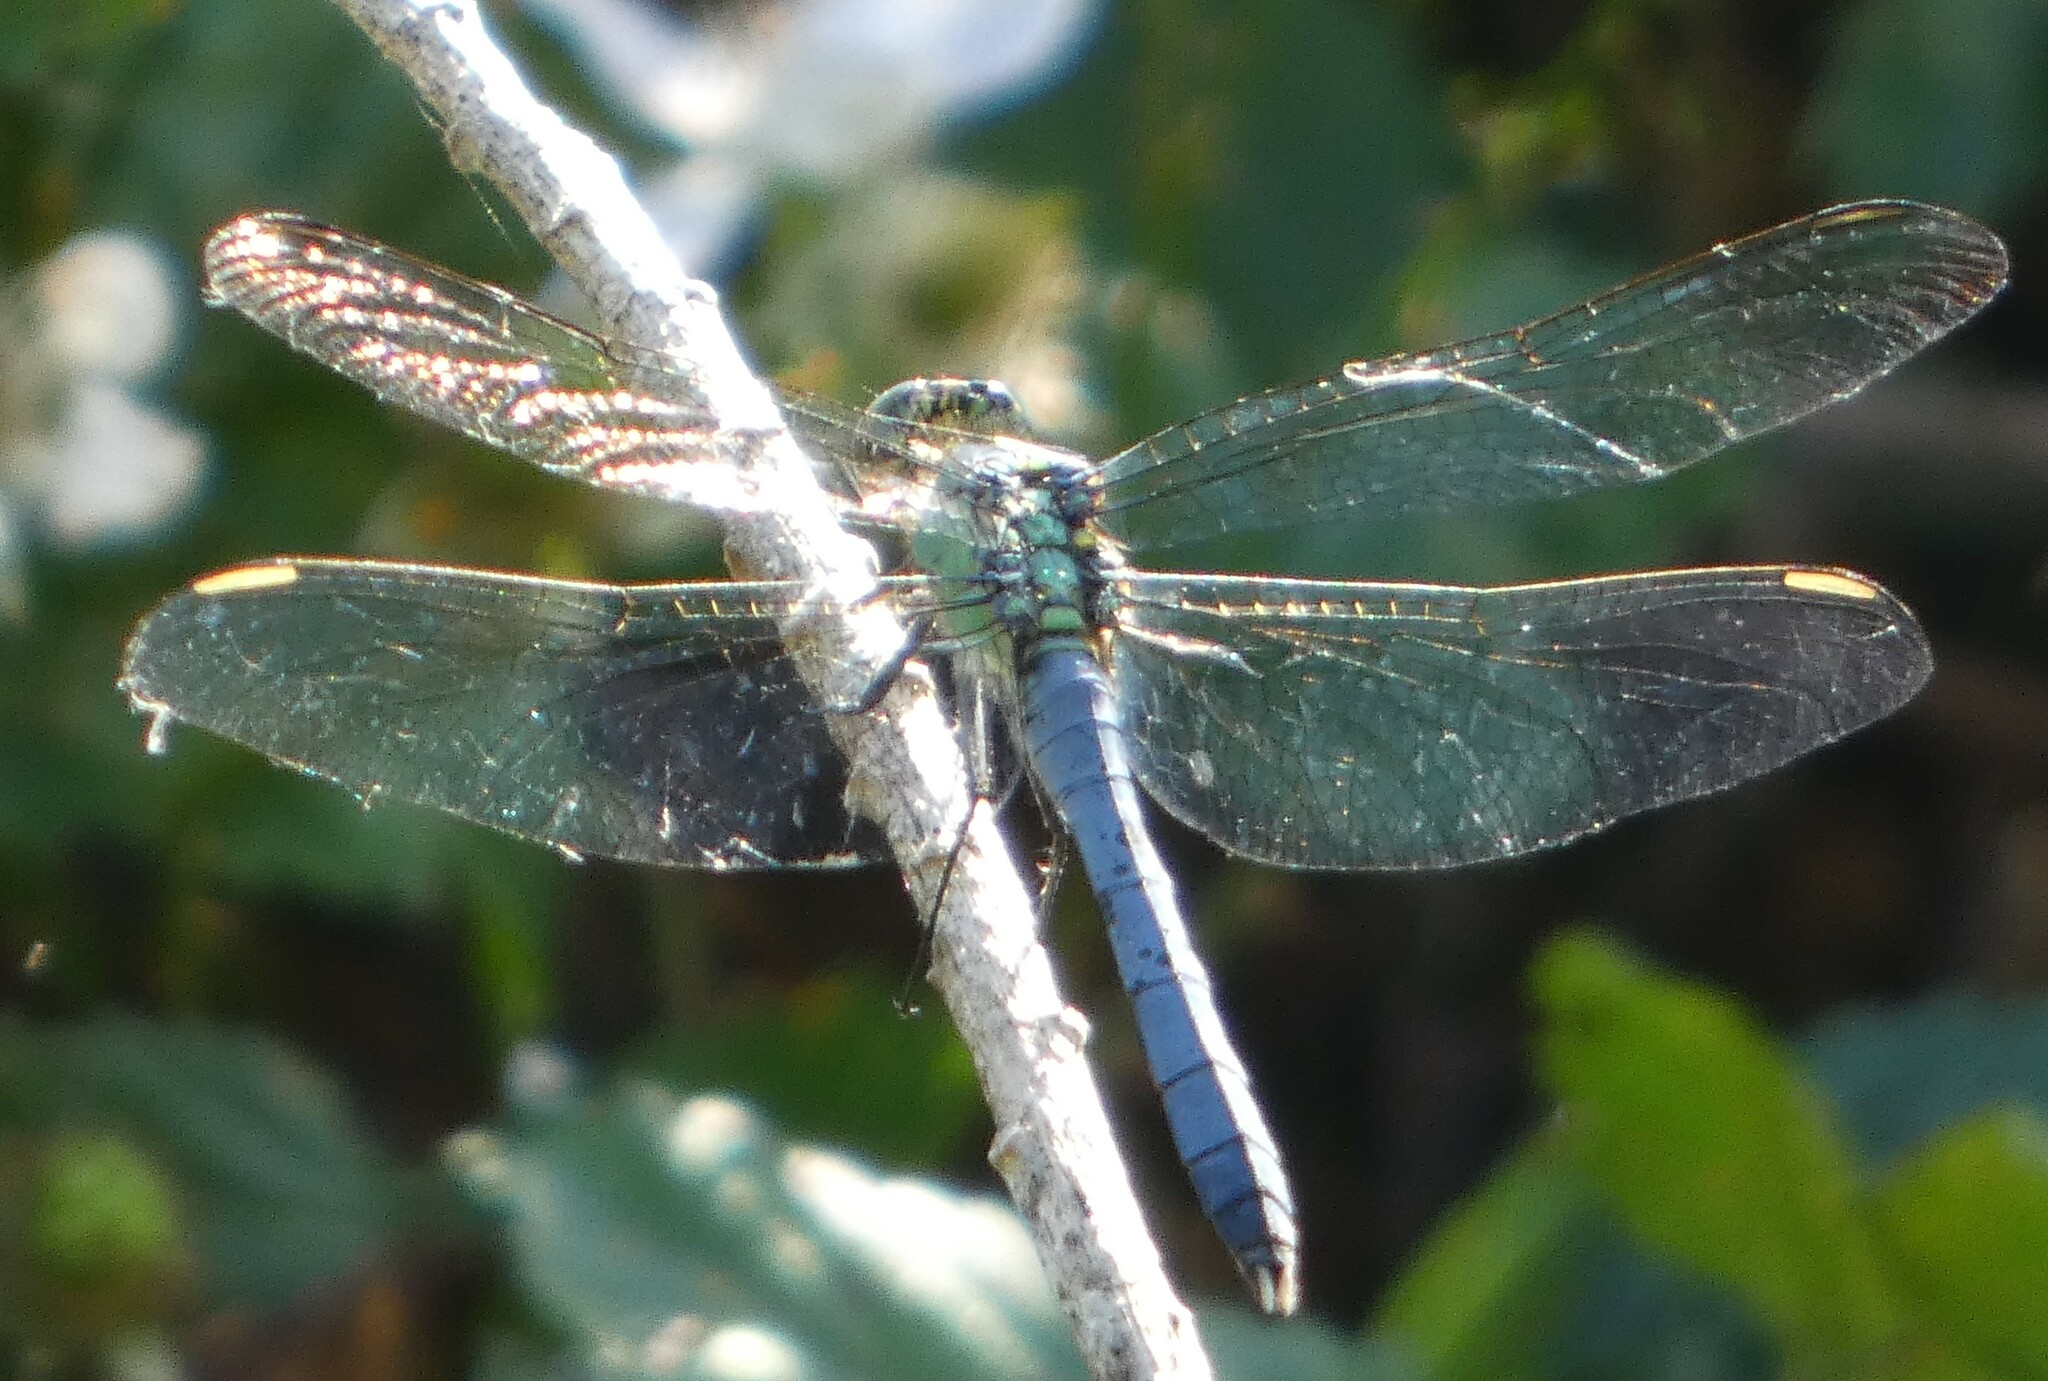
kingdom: Animalia
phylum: Arthropoda
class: Insecta
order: Odonata
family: Libellulidae
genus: Erythemis
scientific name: Erythemis simplicicollis
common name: Eastern pondhawk
